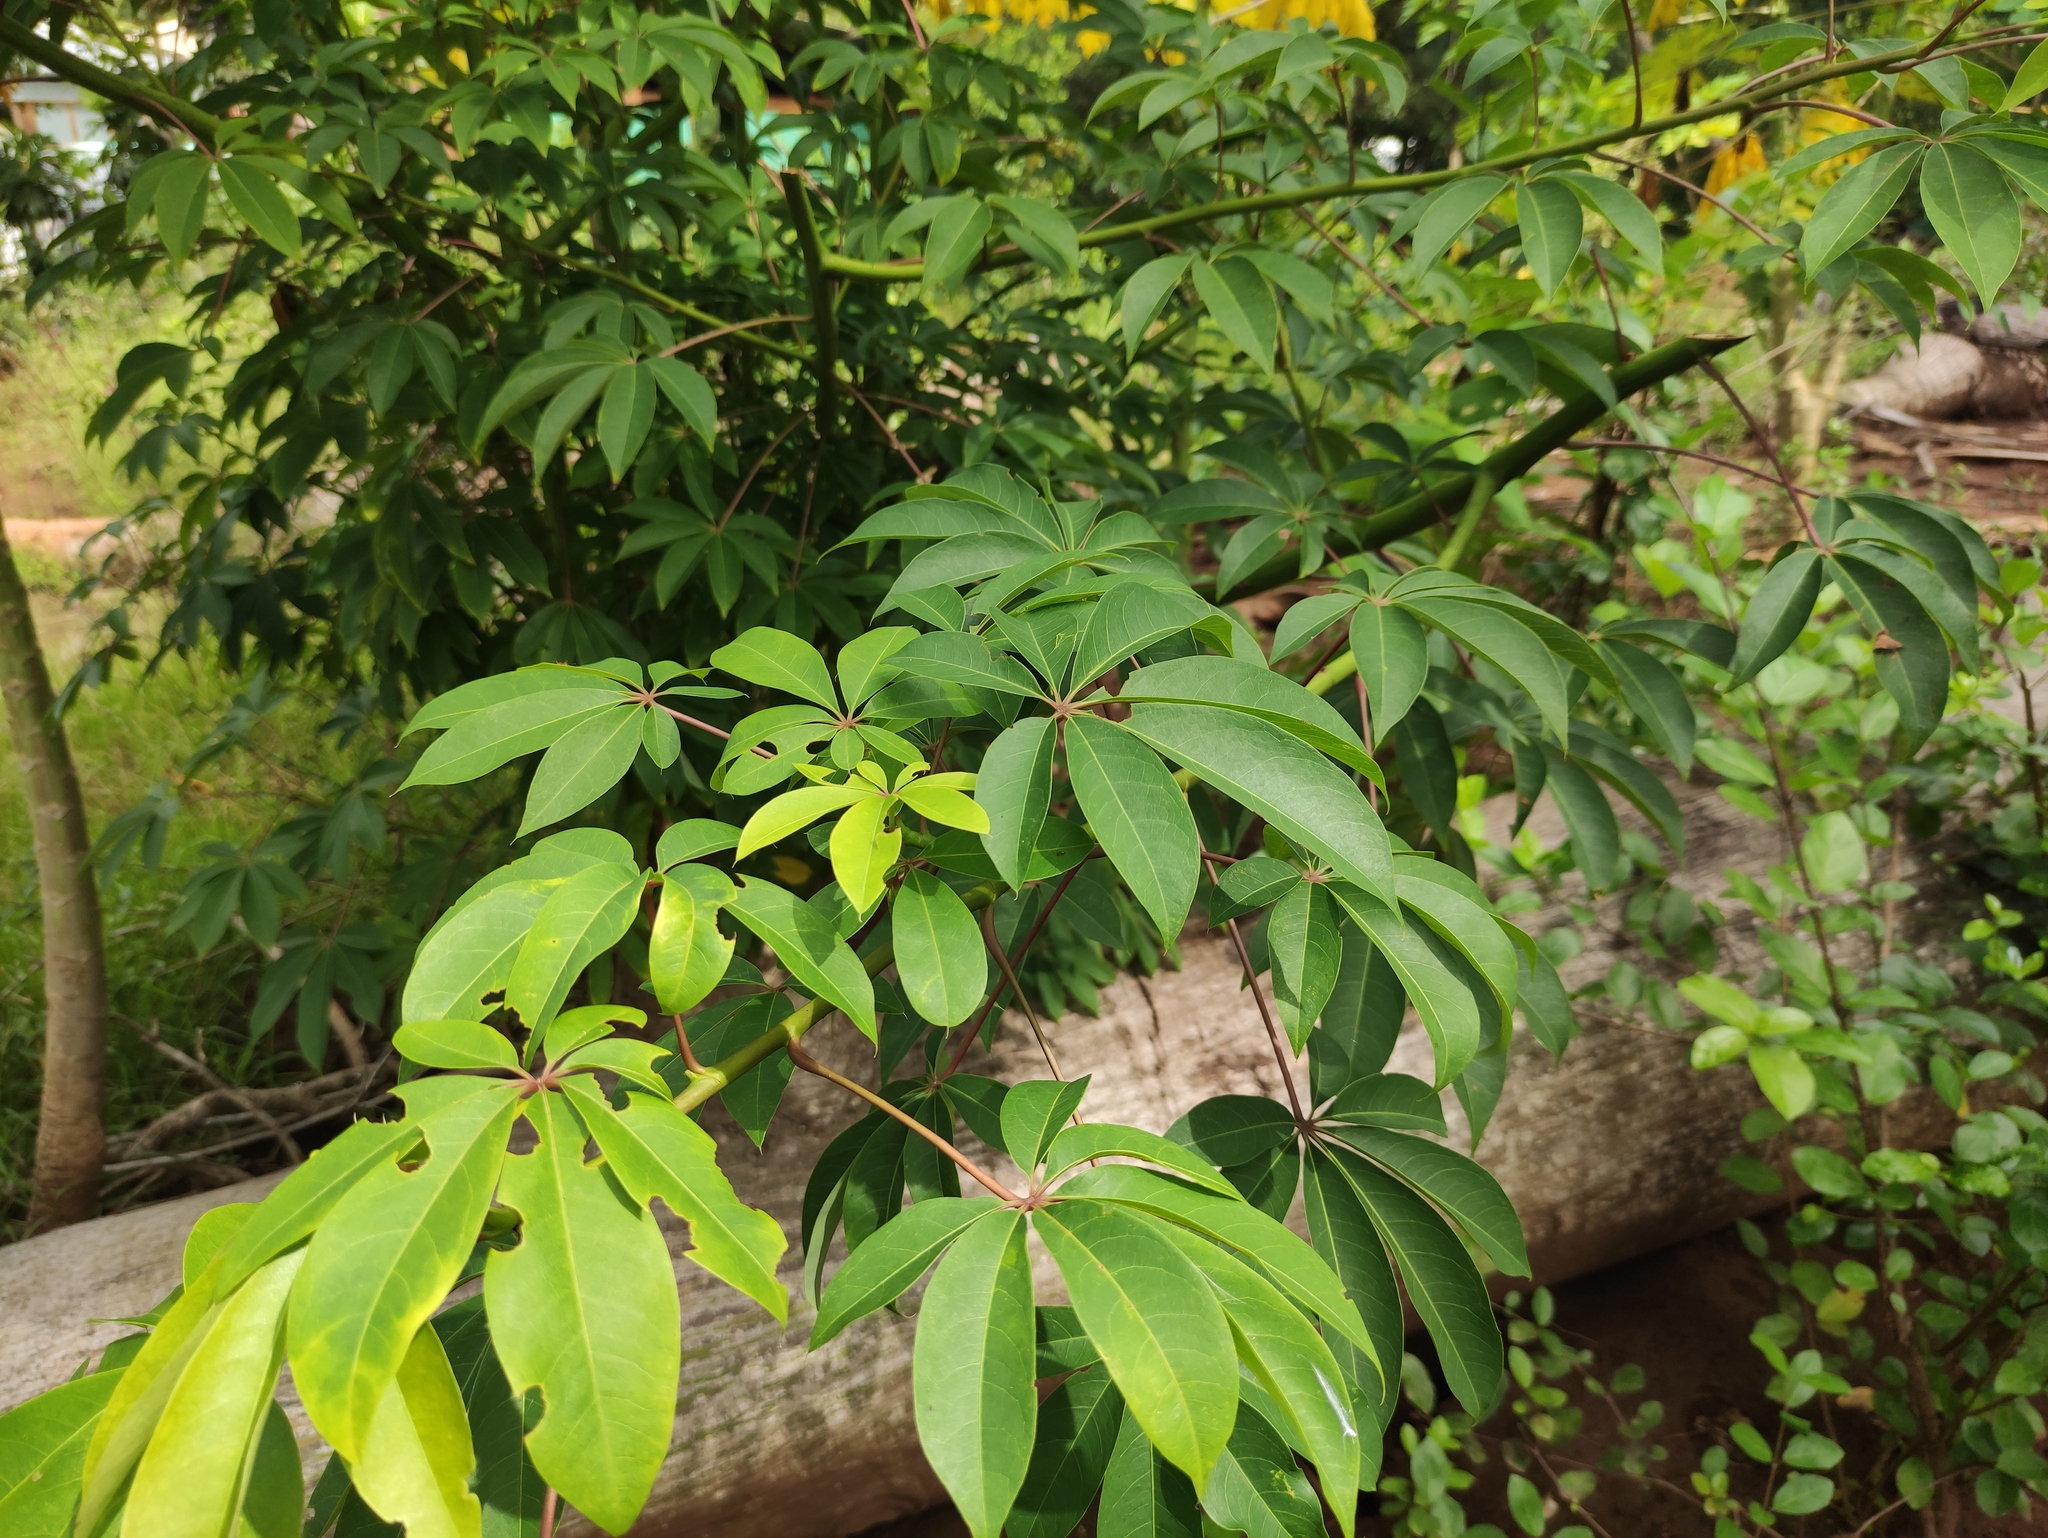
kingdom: Plantae
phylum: Tracheophyta
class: Magnoliopsida
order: Malvales
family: Malvaceae
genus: Ceiba
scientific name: Ceiba pentandra
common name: Kapok
